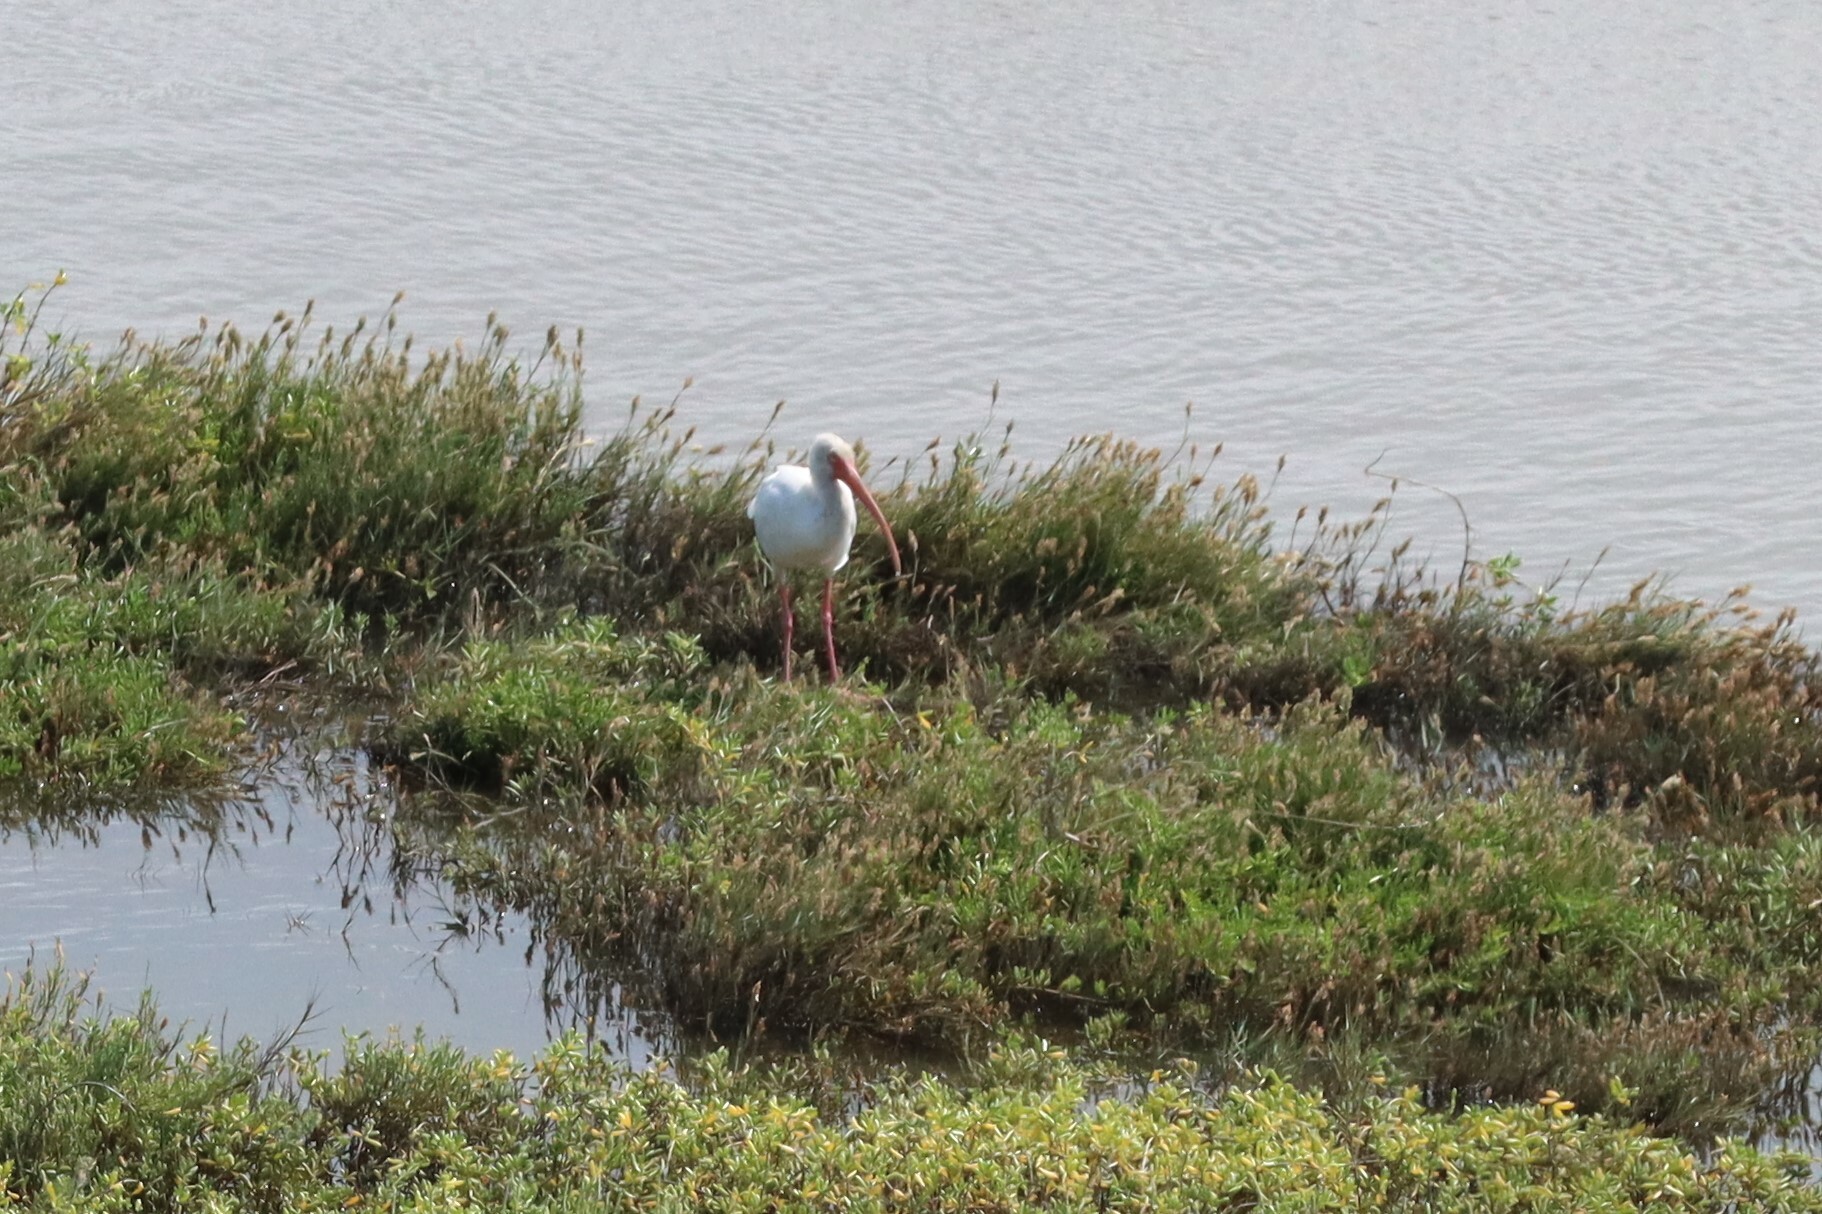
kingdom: Animalia
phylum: Chordata
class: Aves
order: Pelecaniformes
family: Threskiornithidae
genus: Eudocimus
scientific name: Eudocimus albus
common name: White ibis
